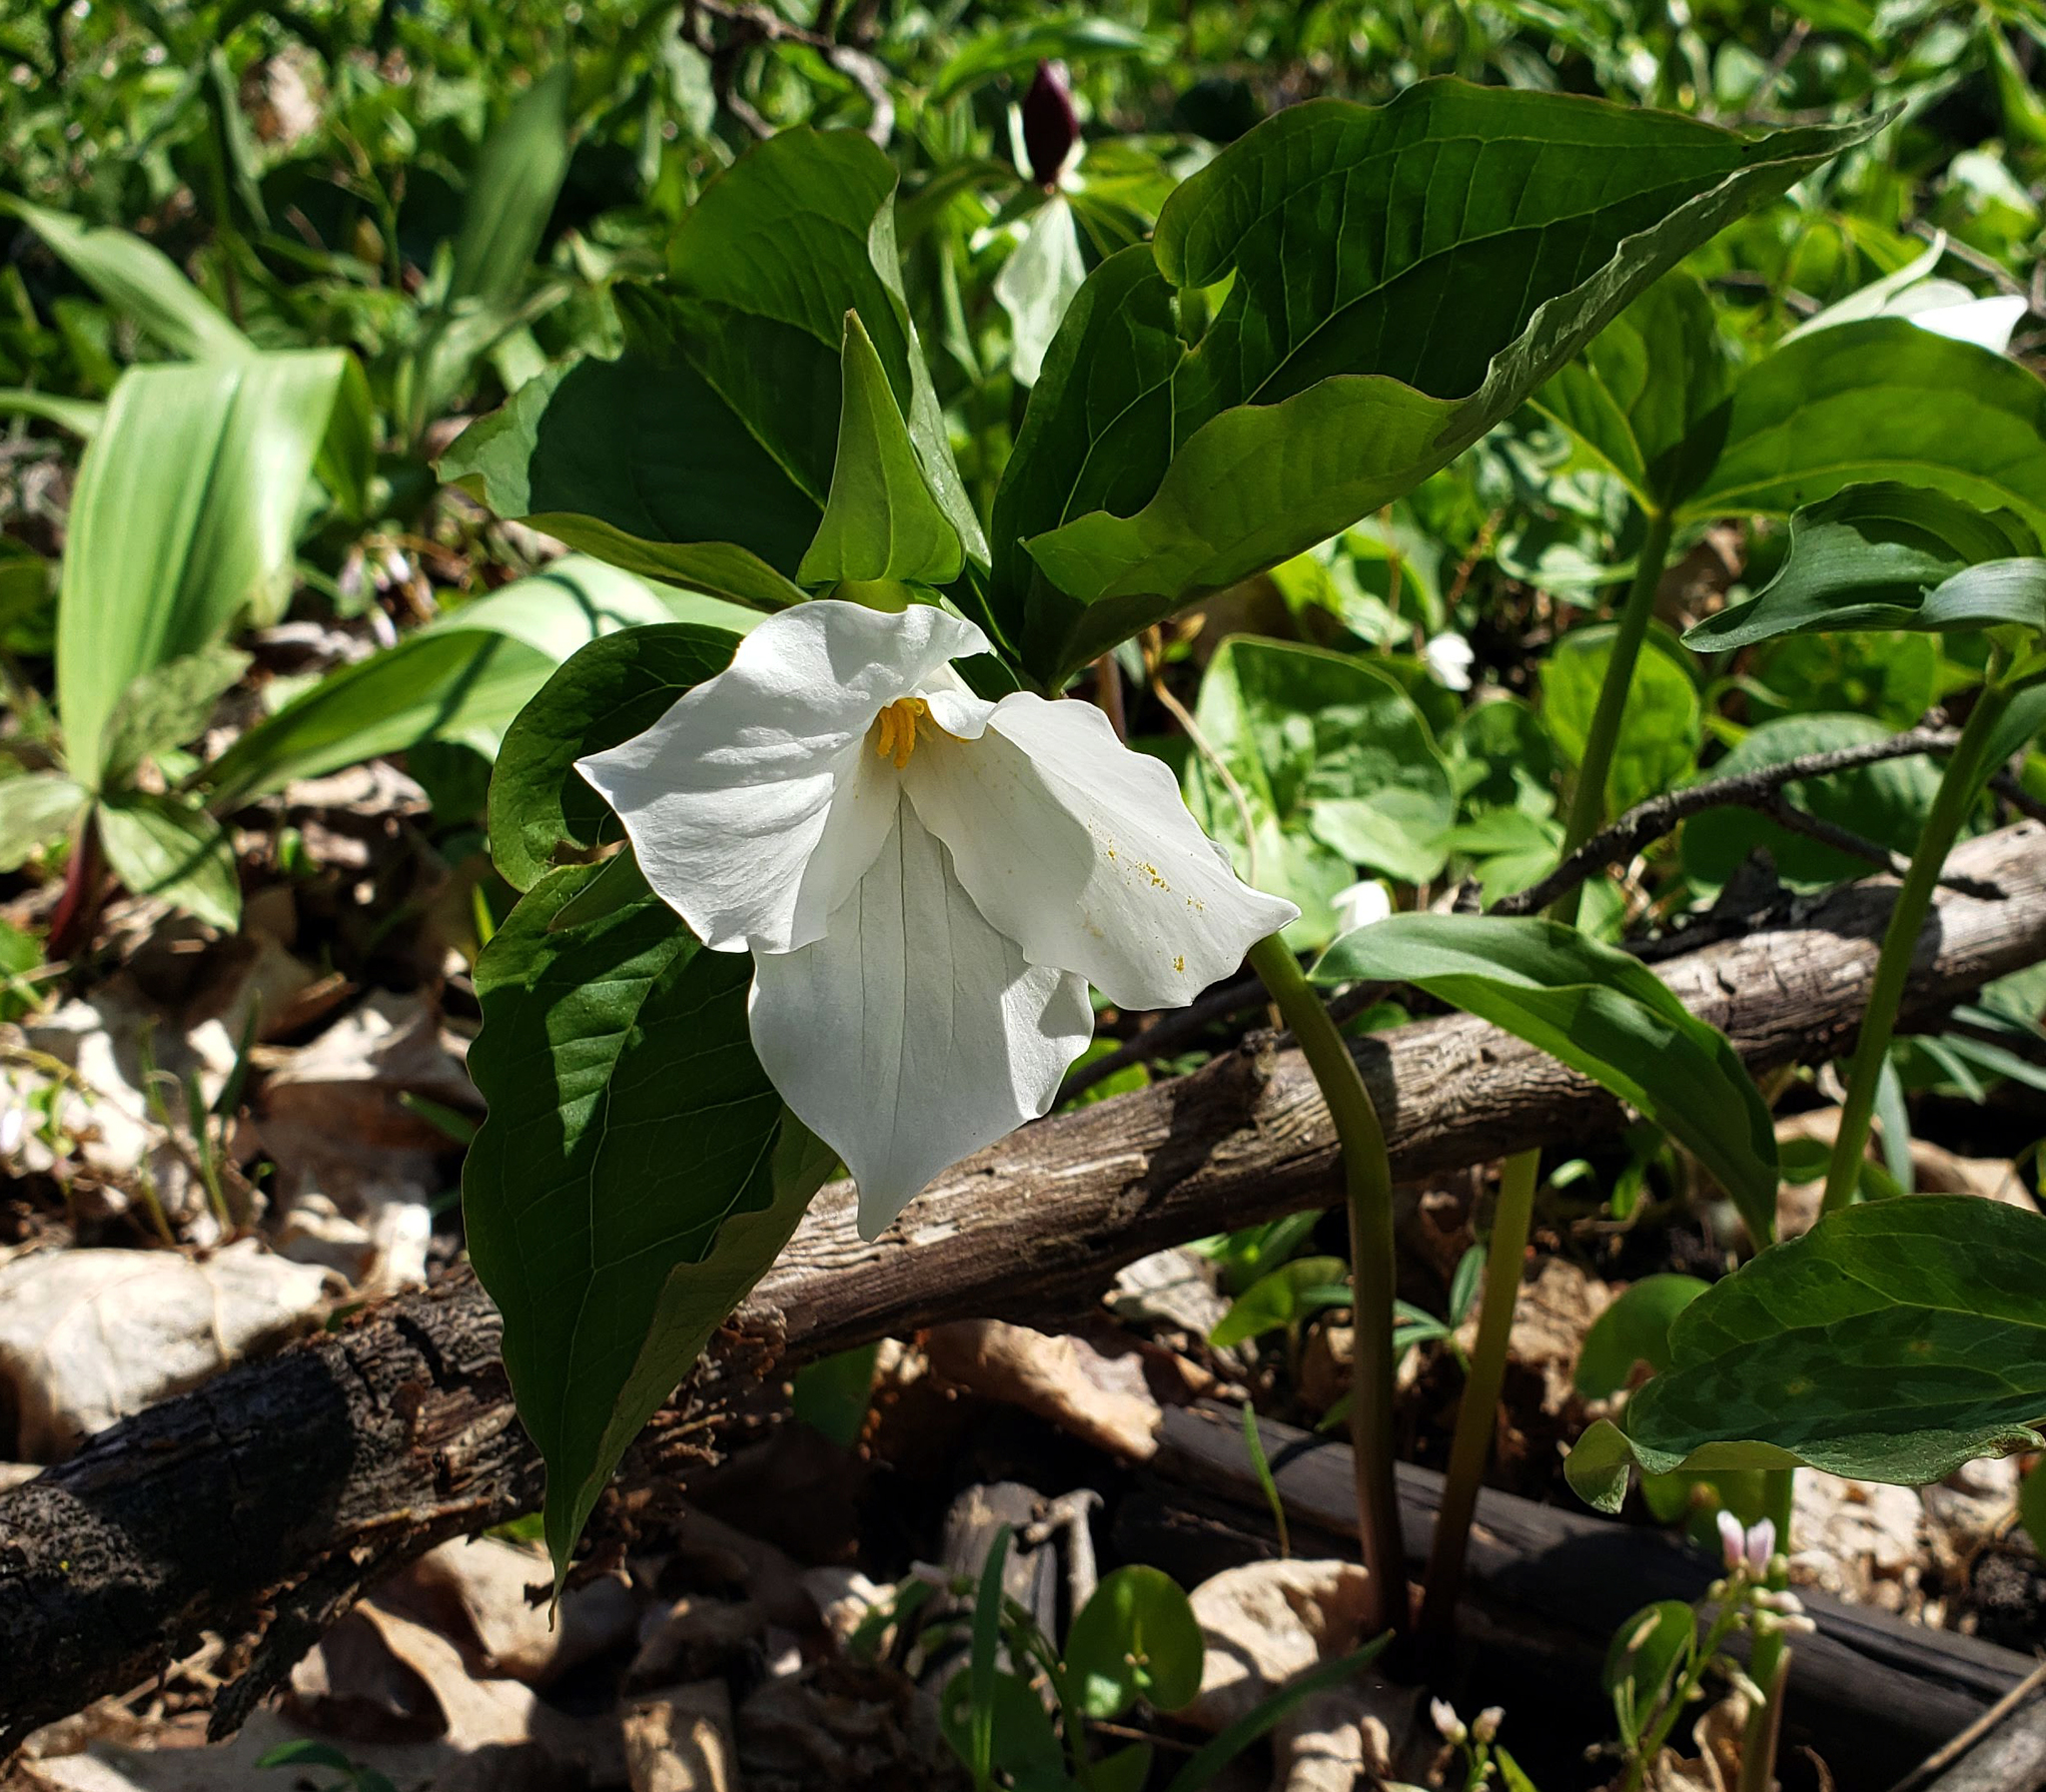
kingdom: Plantae
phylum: Tracheophyta
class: Liliopsida
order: Liliales
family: Melanthiaceae
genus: Trillium
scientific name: Trillium grandiflorum
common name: Great white trillium
